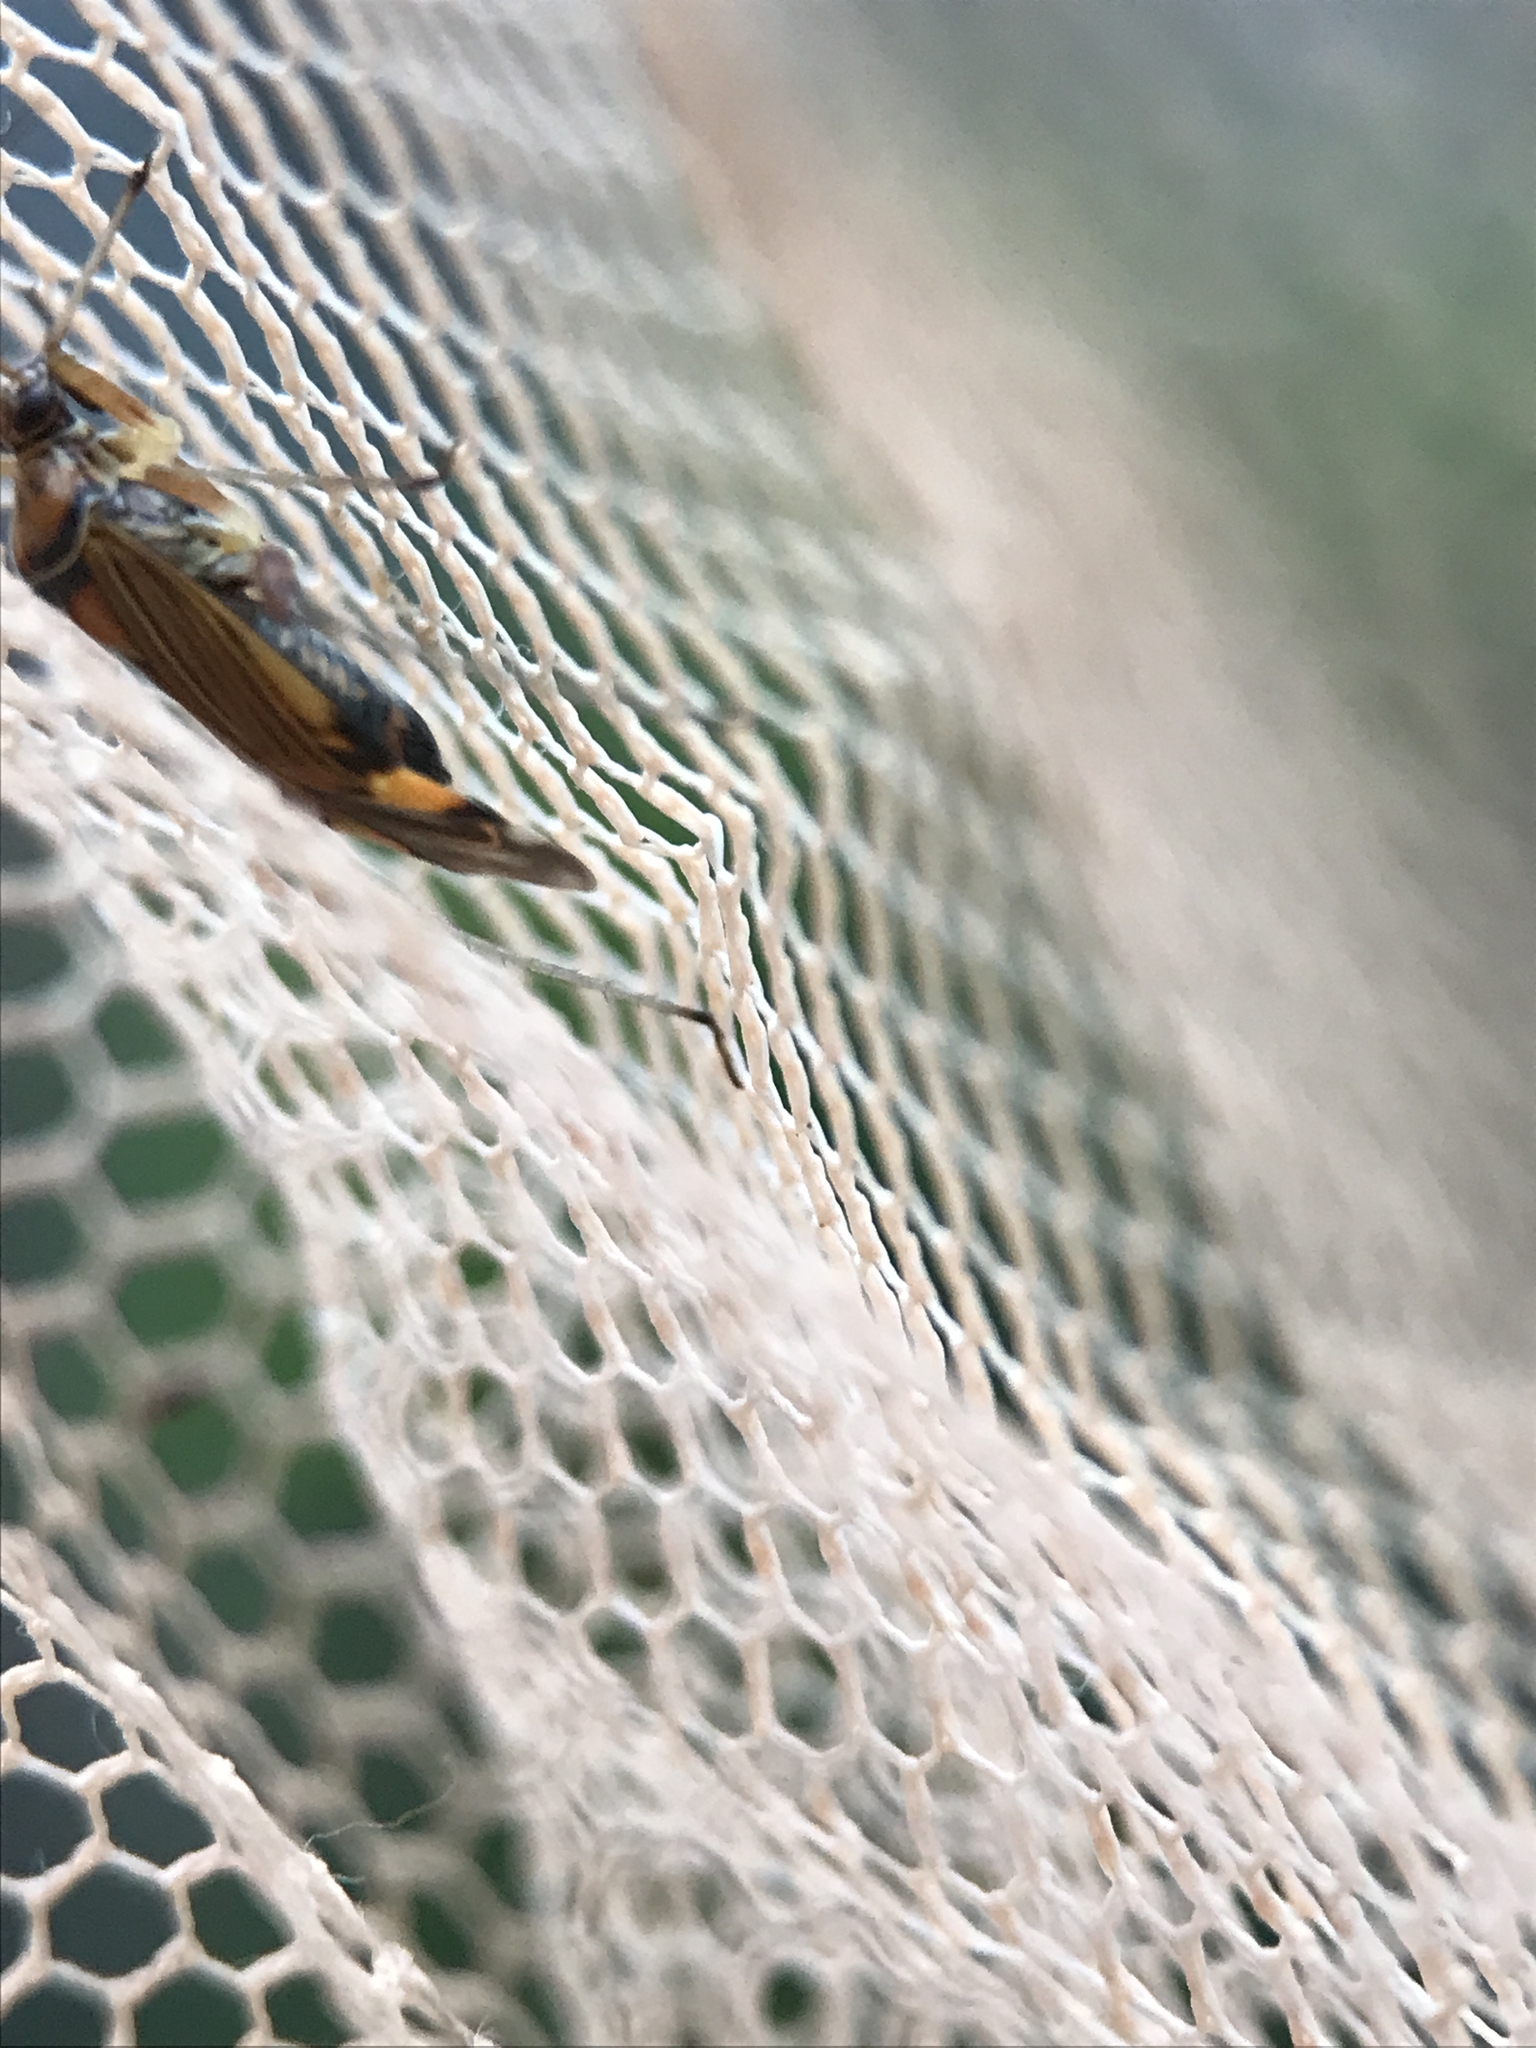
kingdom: Animalia
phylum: Arthropoda
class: Insecta
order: Hemiptera
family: Miridae
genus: Rhabdomiris
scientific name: Rhabdomiris striatellus
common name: Plant bug
